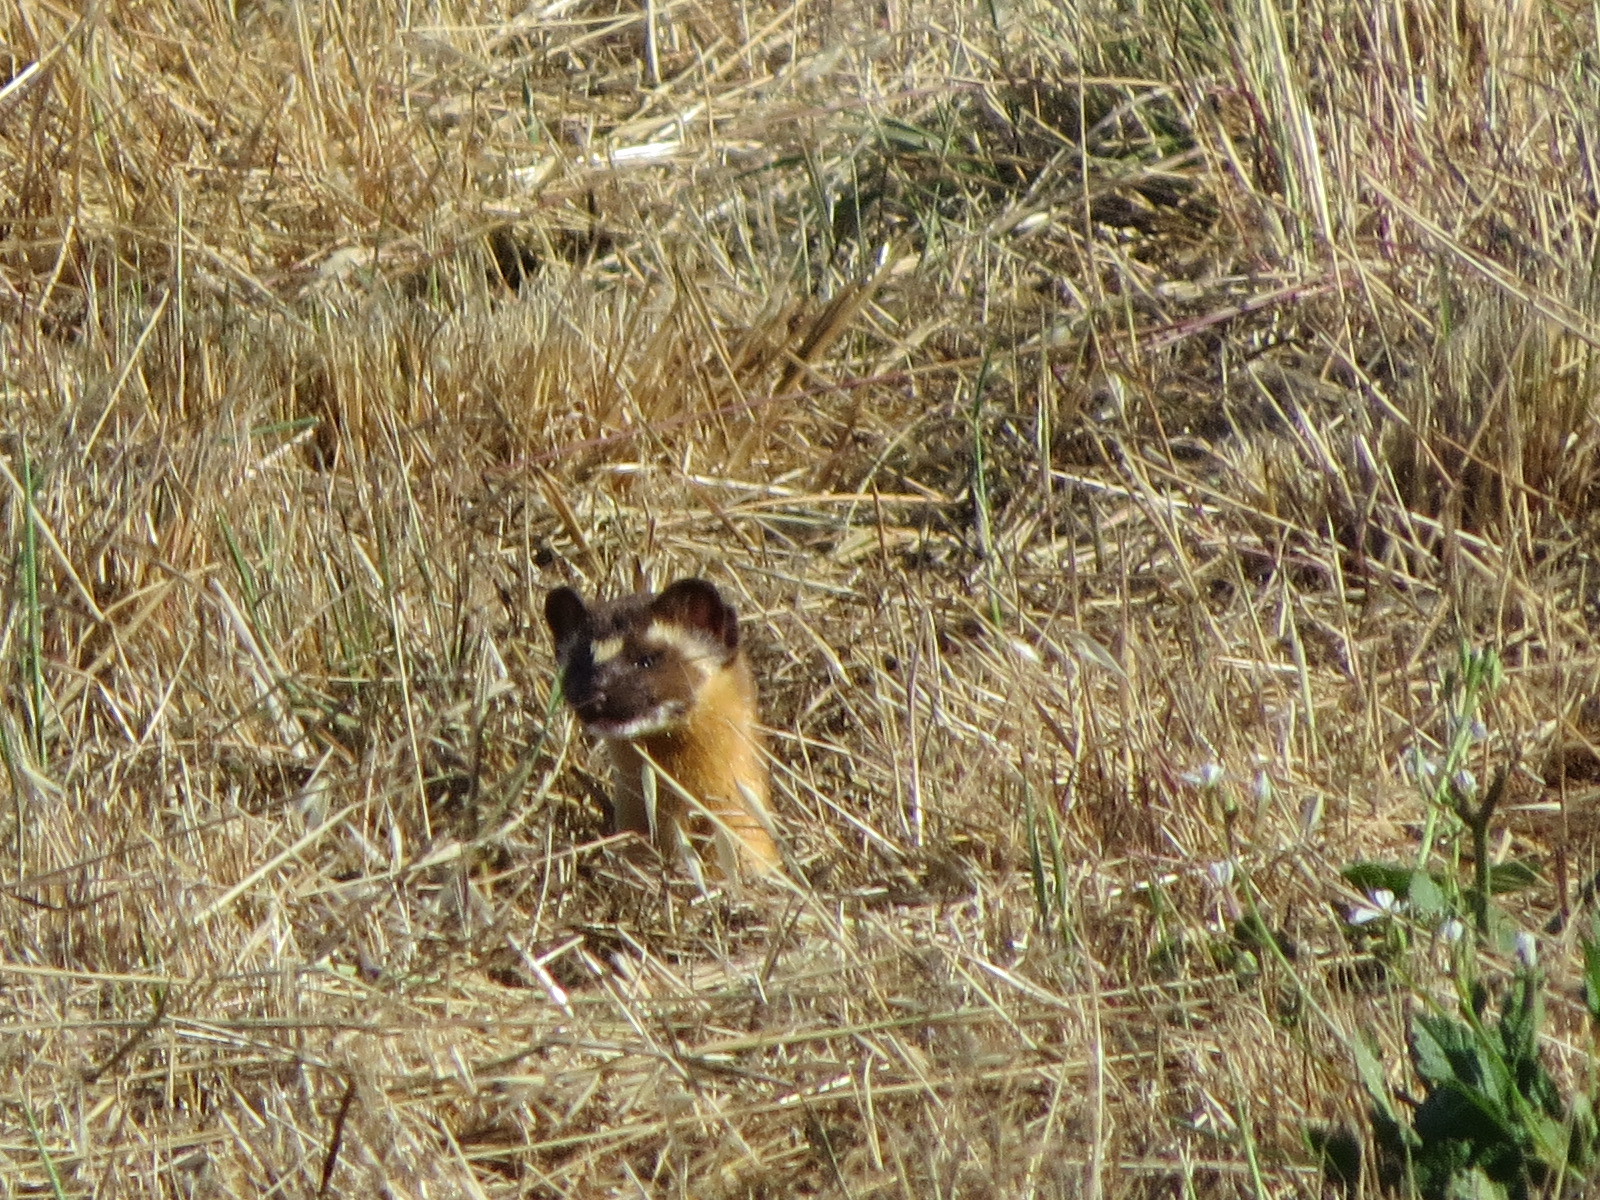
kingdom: Animalia
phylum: Chordata
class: Mammalia
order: Carnivora
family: Mustelidae
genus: Mustela
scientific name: Mustela
